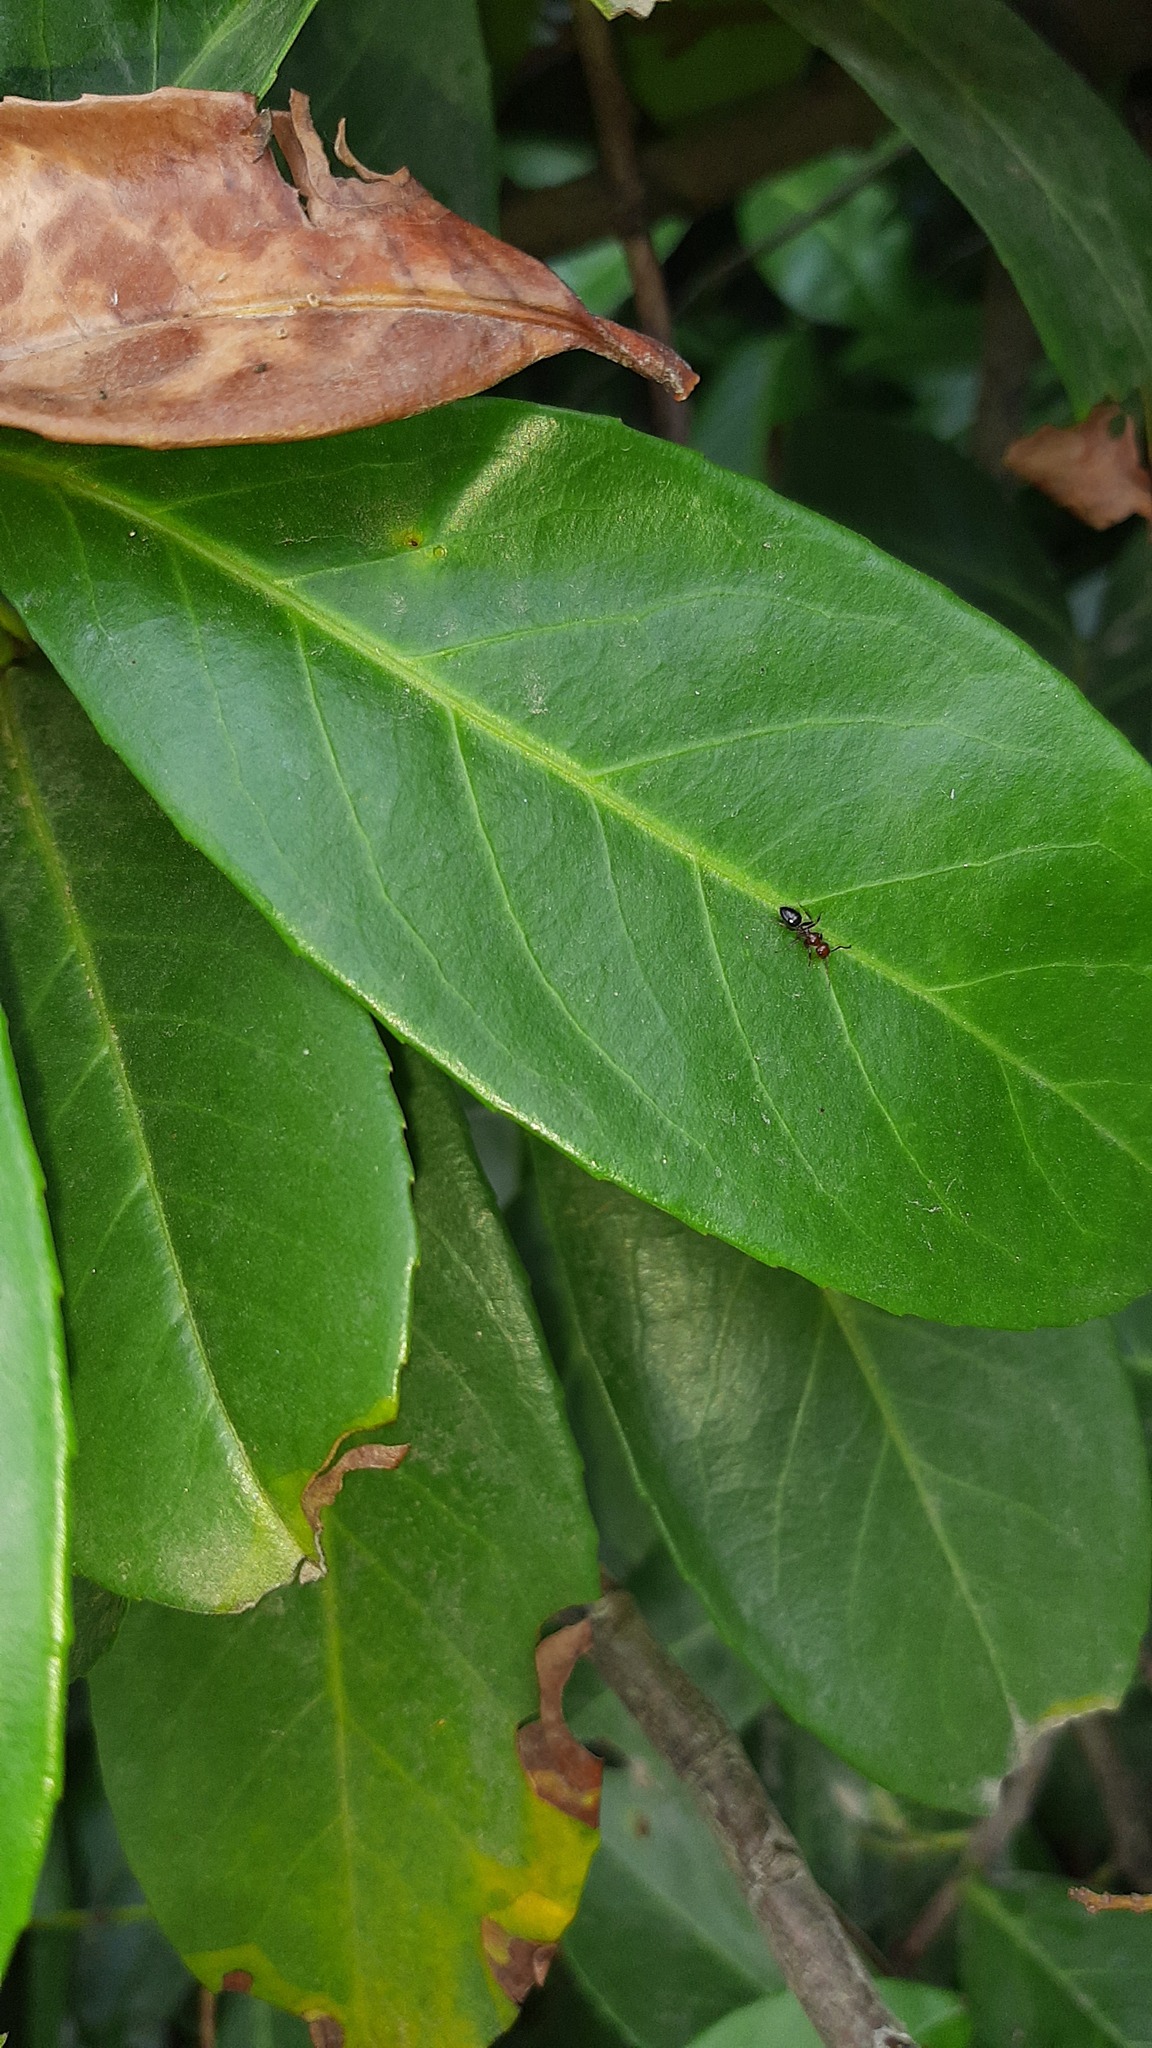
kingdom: Animalia
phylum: Arthropoda
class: Insecta
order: Hymenoptera
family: Formicidae
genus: Camponotus
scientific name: Camponotus lateralis
